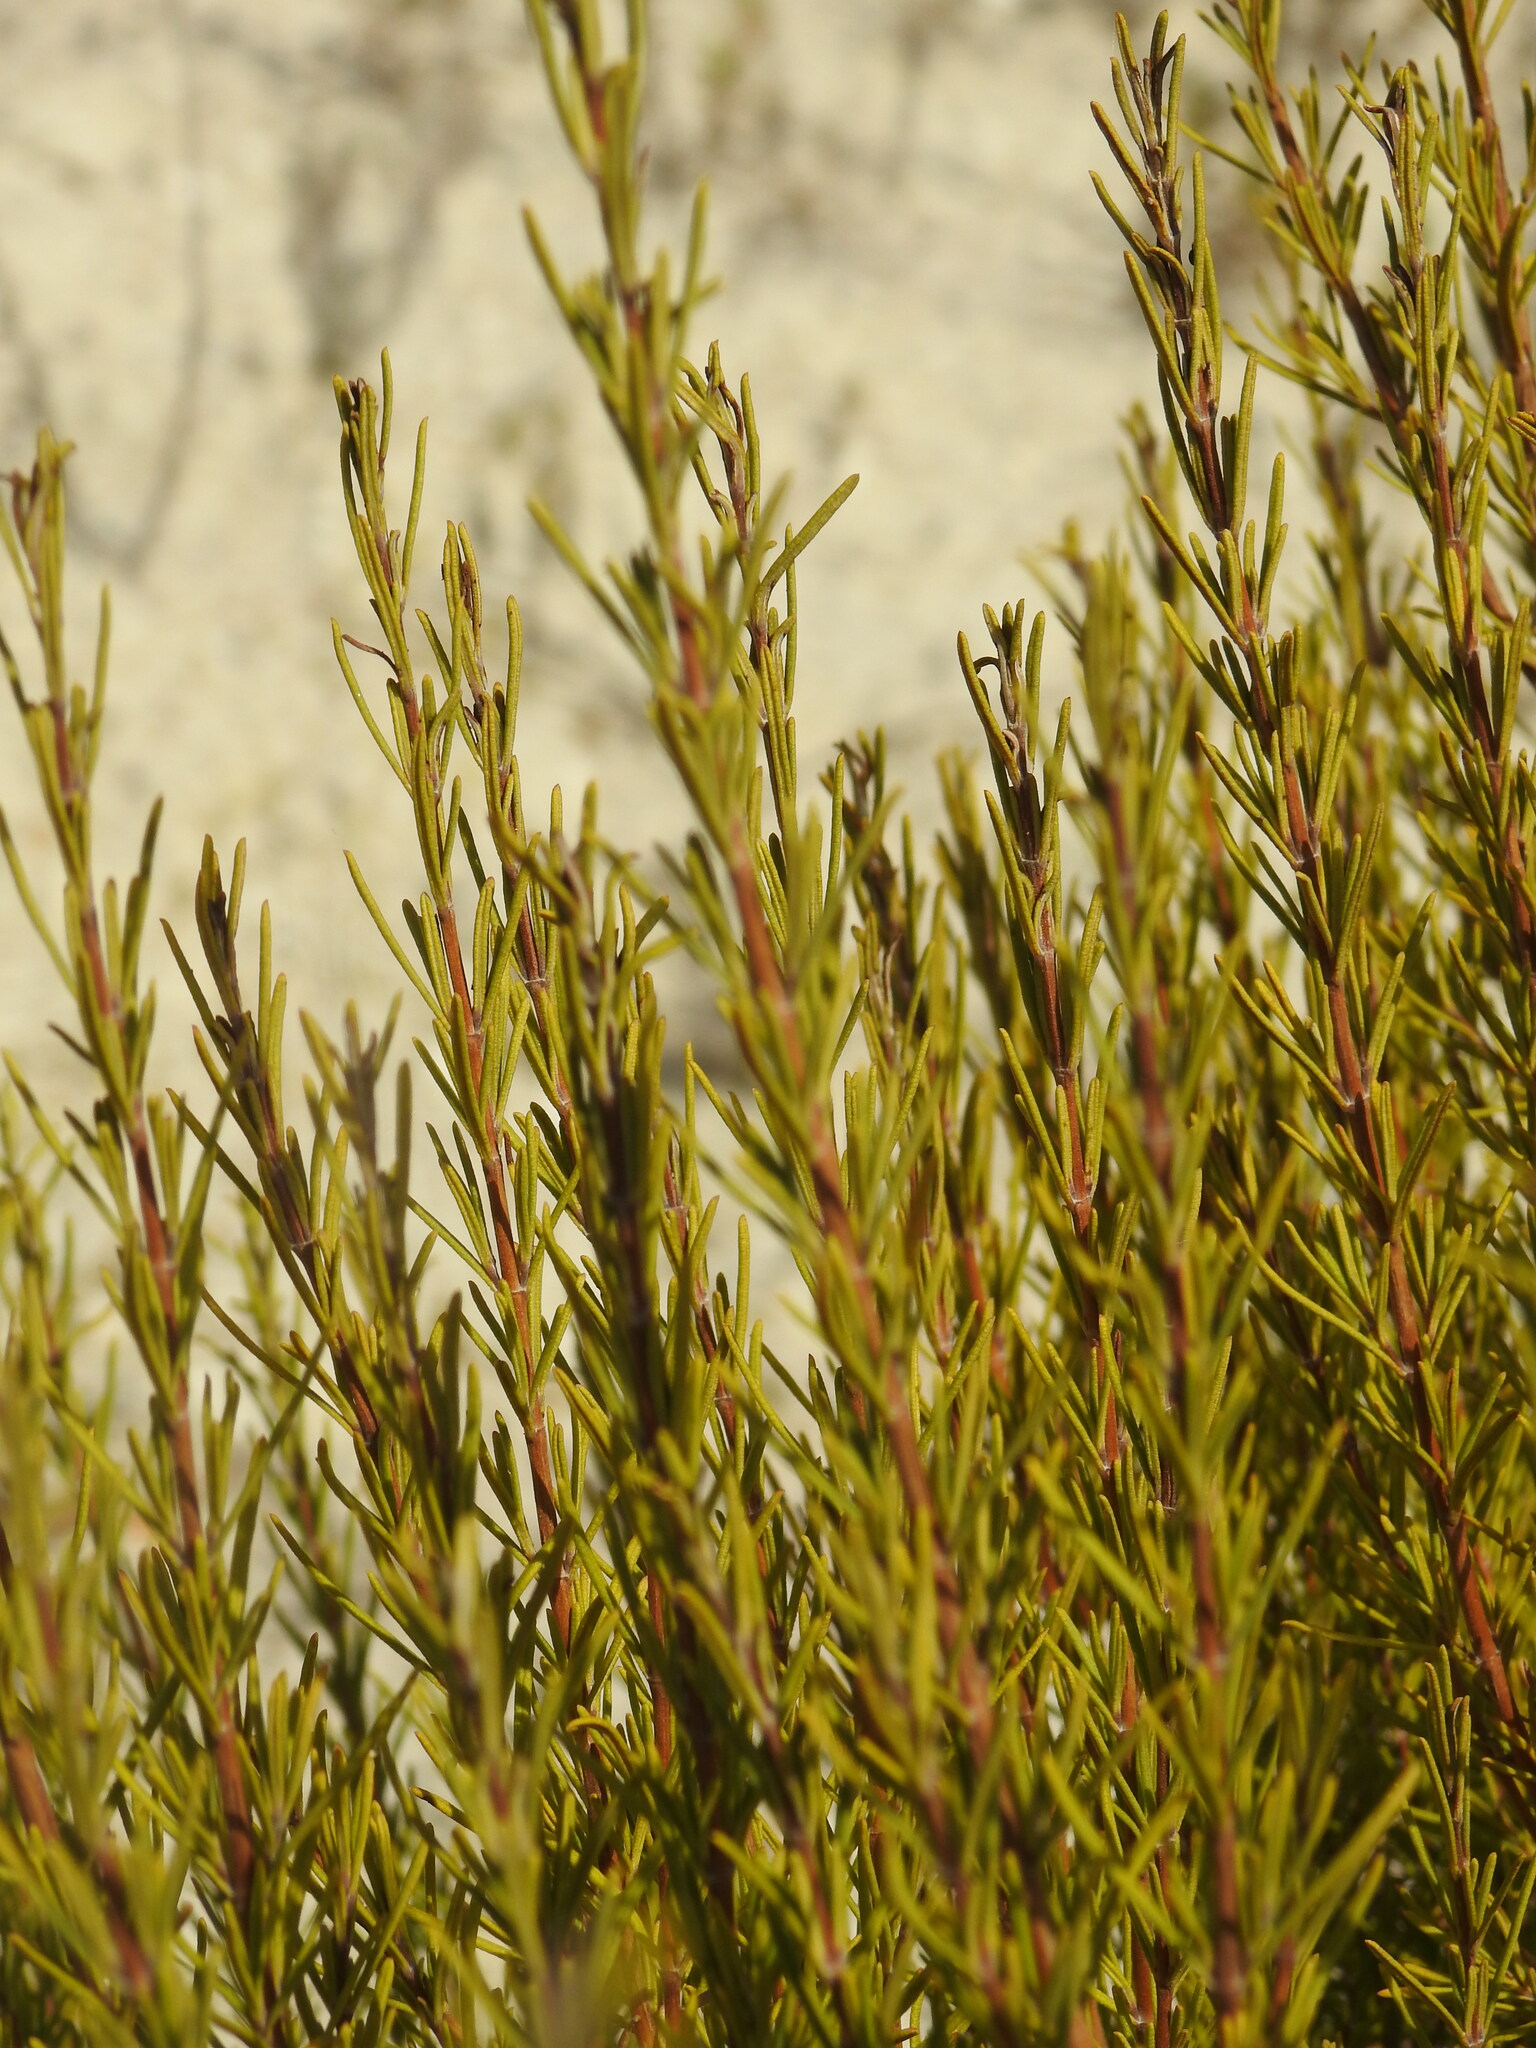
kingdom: Plantae
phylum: Tracheophyta
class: Magnoliopsida
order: Lamiales
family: Lamiaceae
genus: Salvia
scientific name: Salvia rosmarinus
